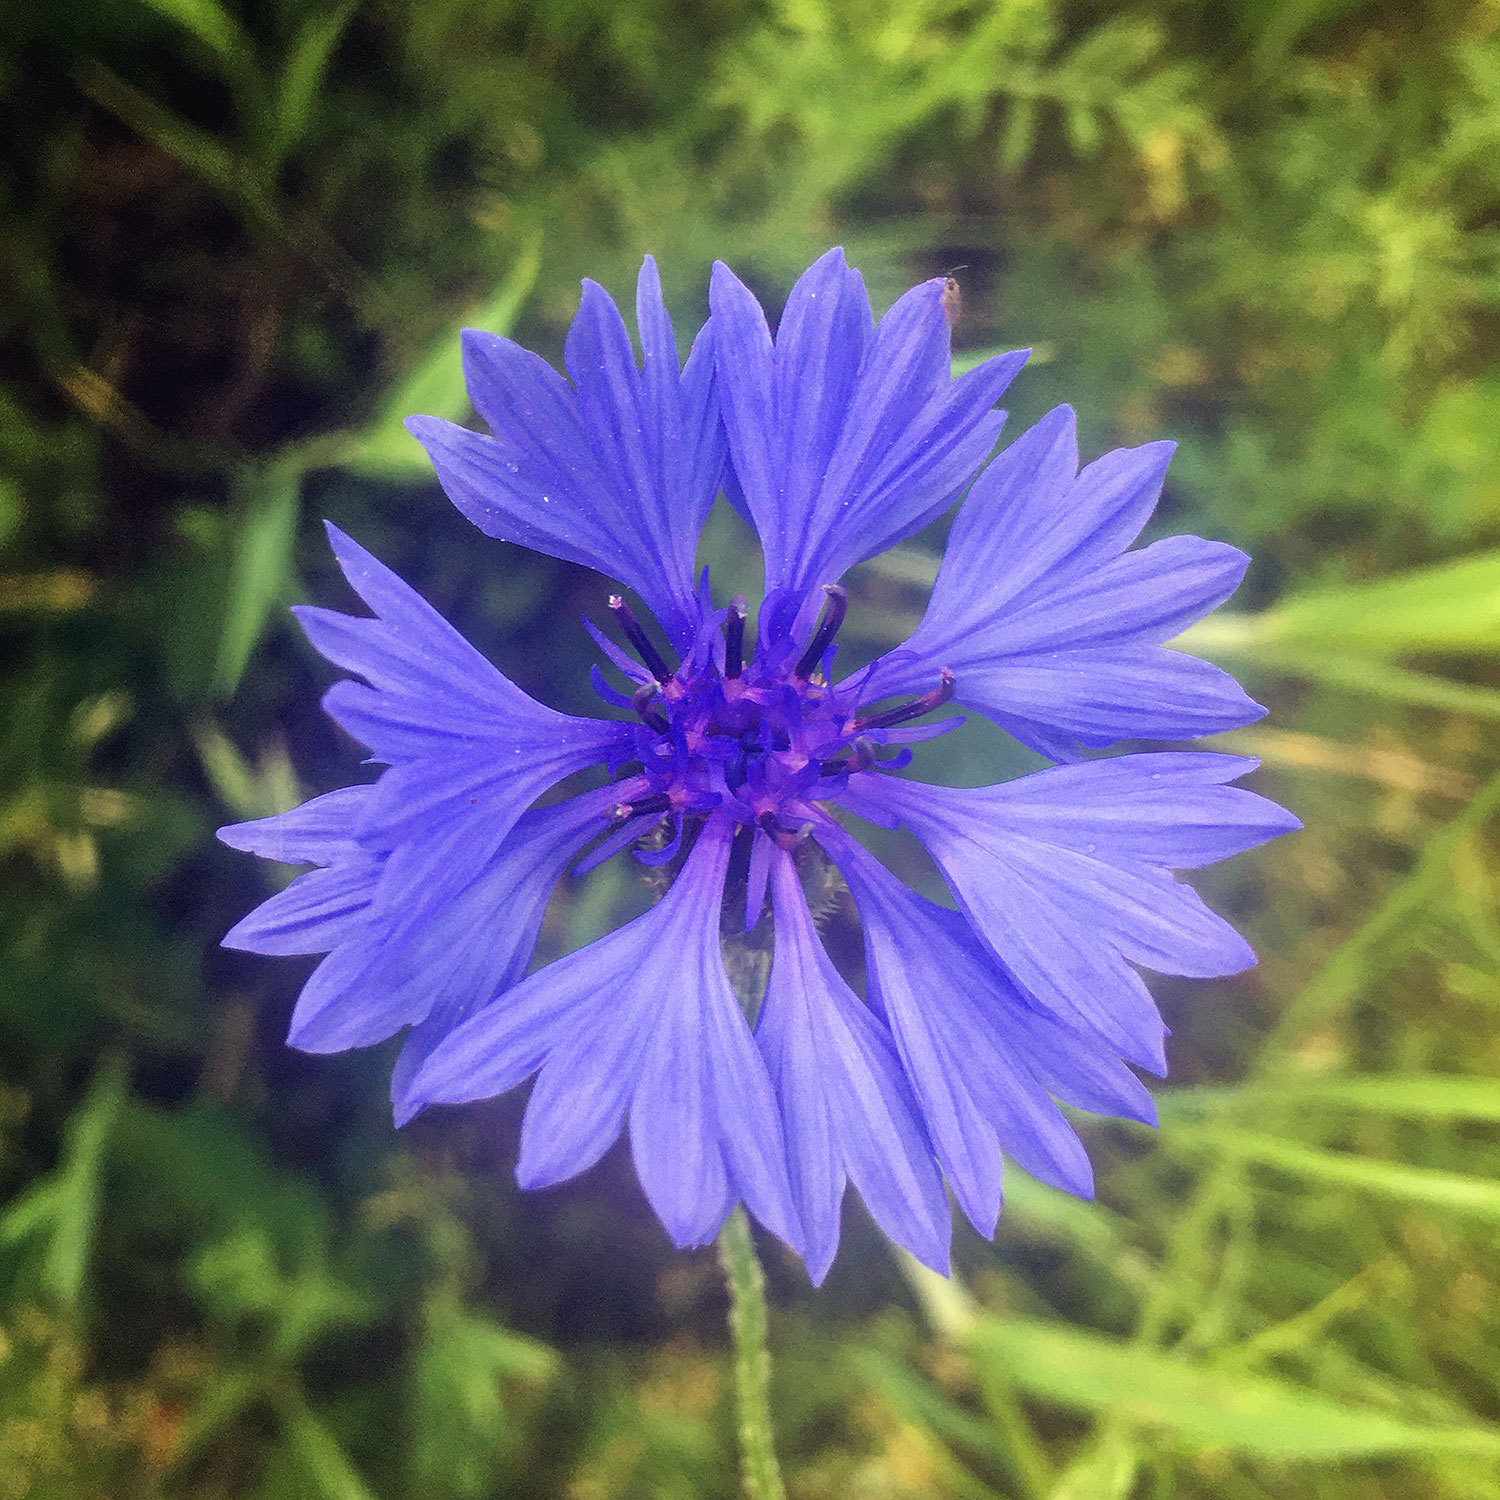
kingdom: Plantae
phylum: Tracheophyta
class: Magnoliopsida
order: Asterales
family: Asteraceae
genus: Centaurea
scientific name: Centaurea cyanus
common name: Cornflower
